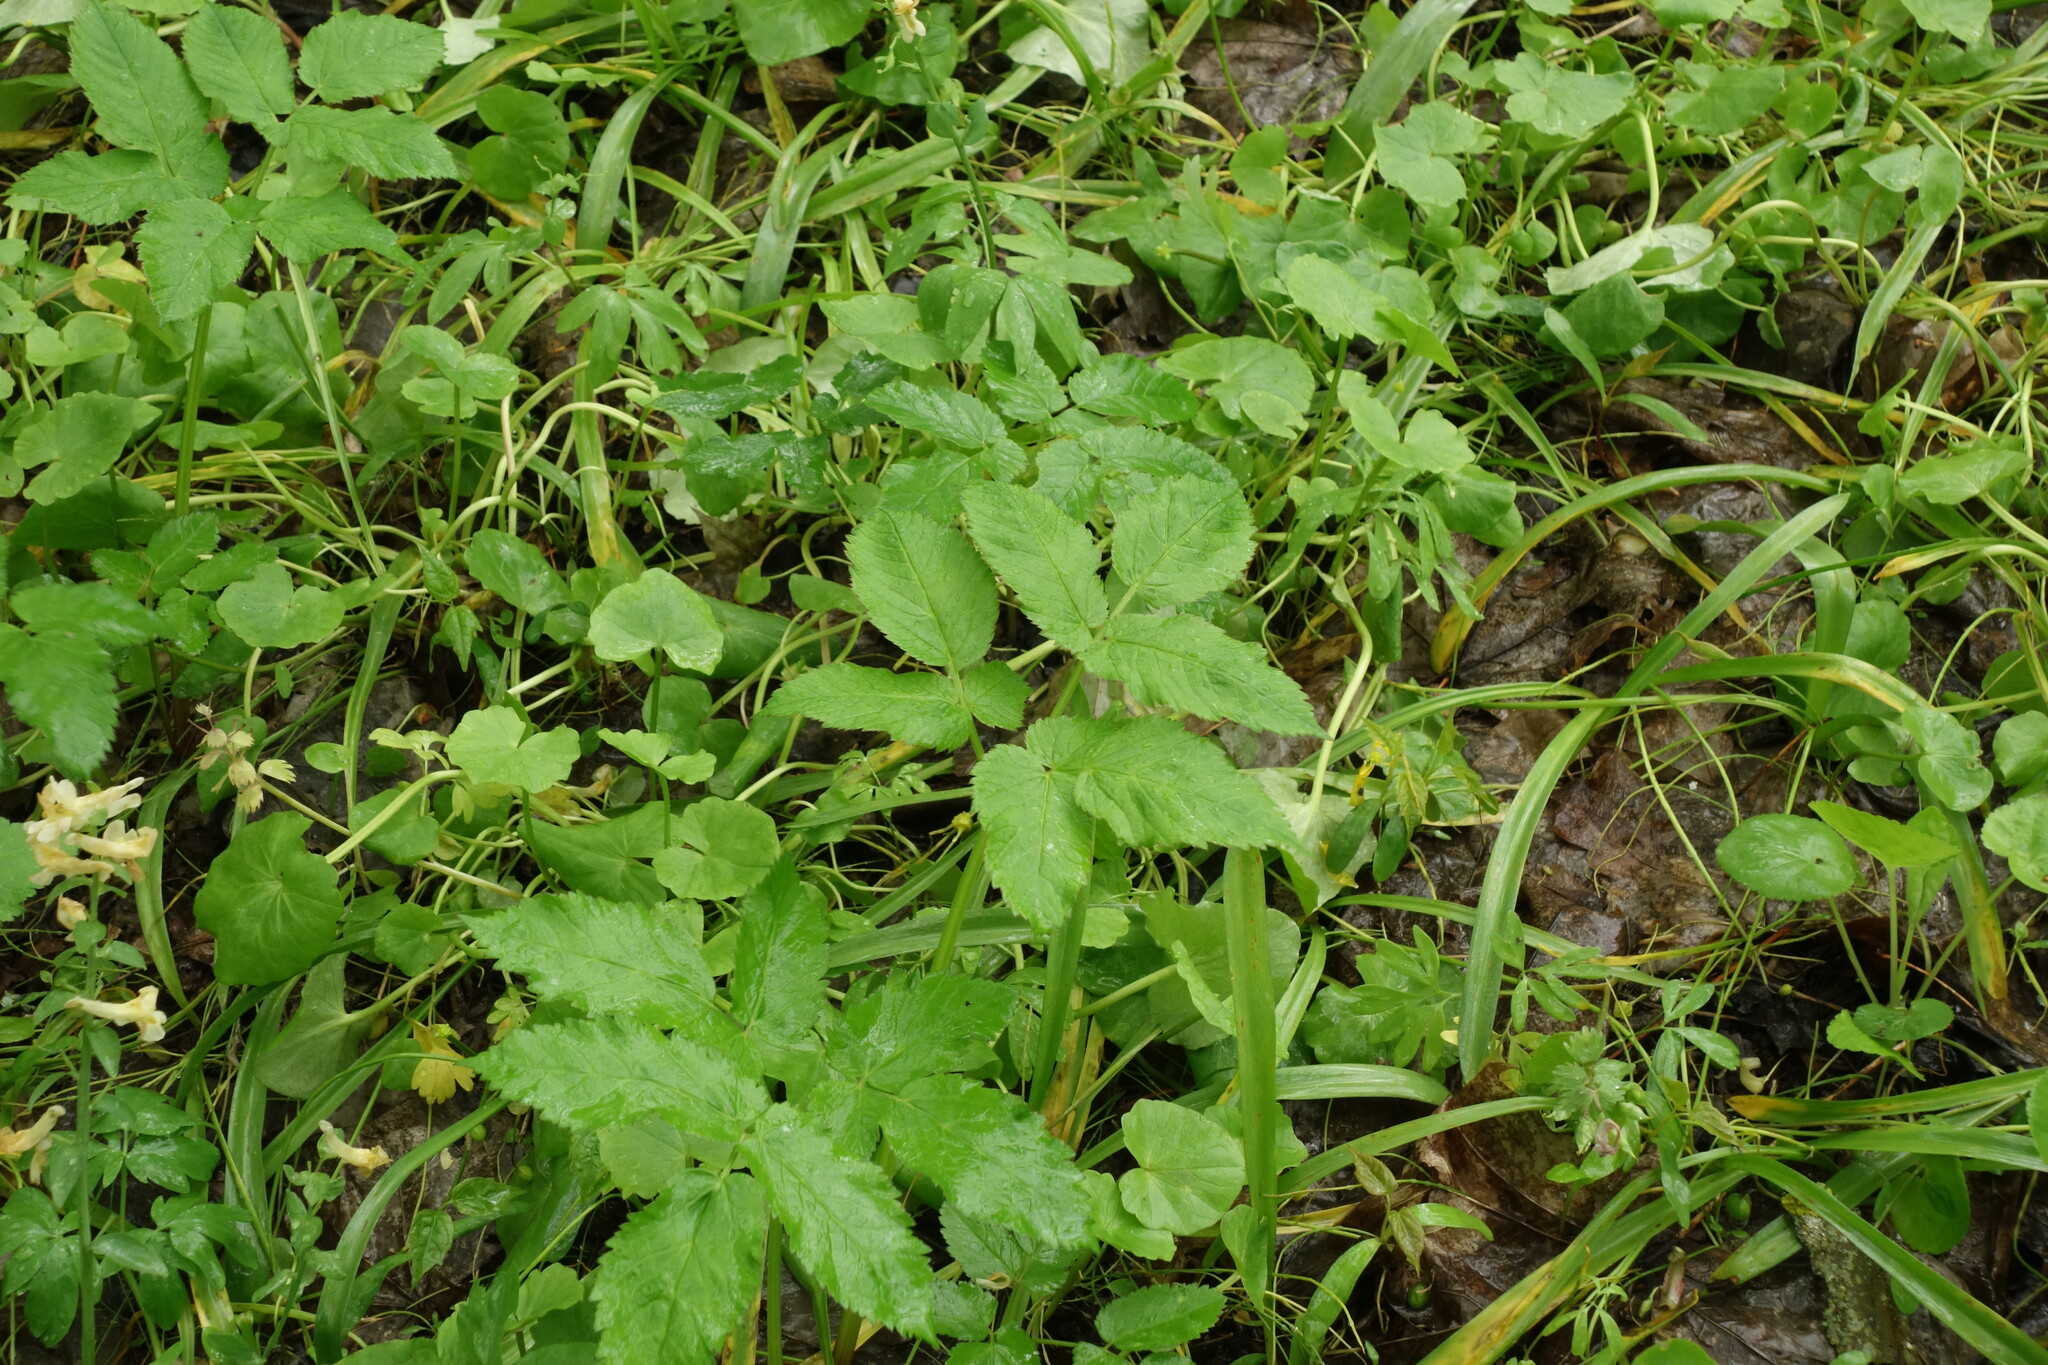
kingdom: Plantae
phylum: Tracheophyta
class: Magnoliopsida
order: Apiales
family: Apiaceae
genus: Aegopodium
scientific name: Aegopodium podagraria
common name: Ground-elder
